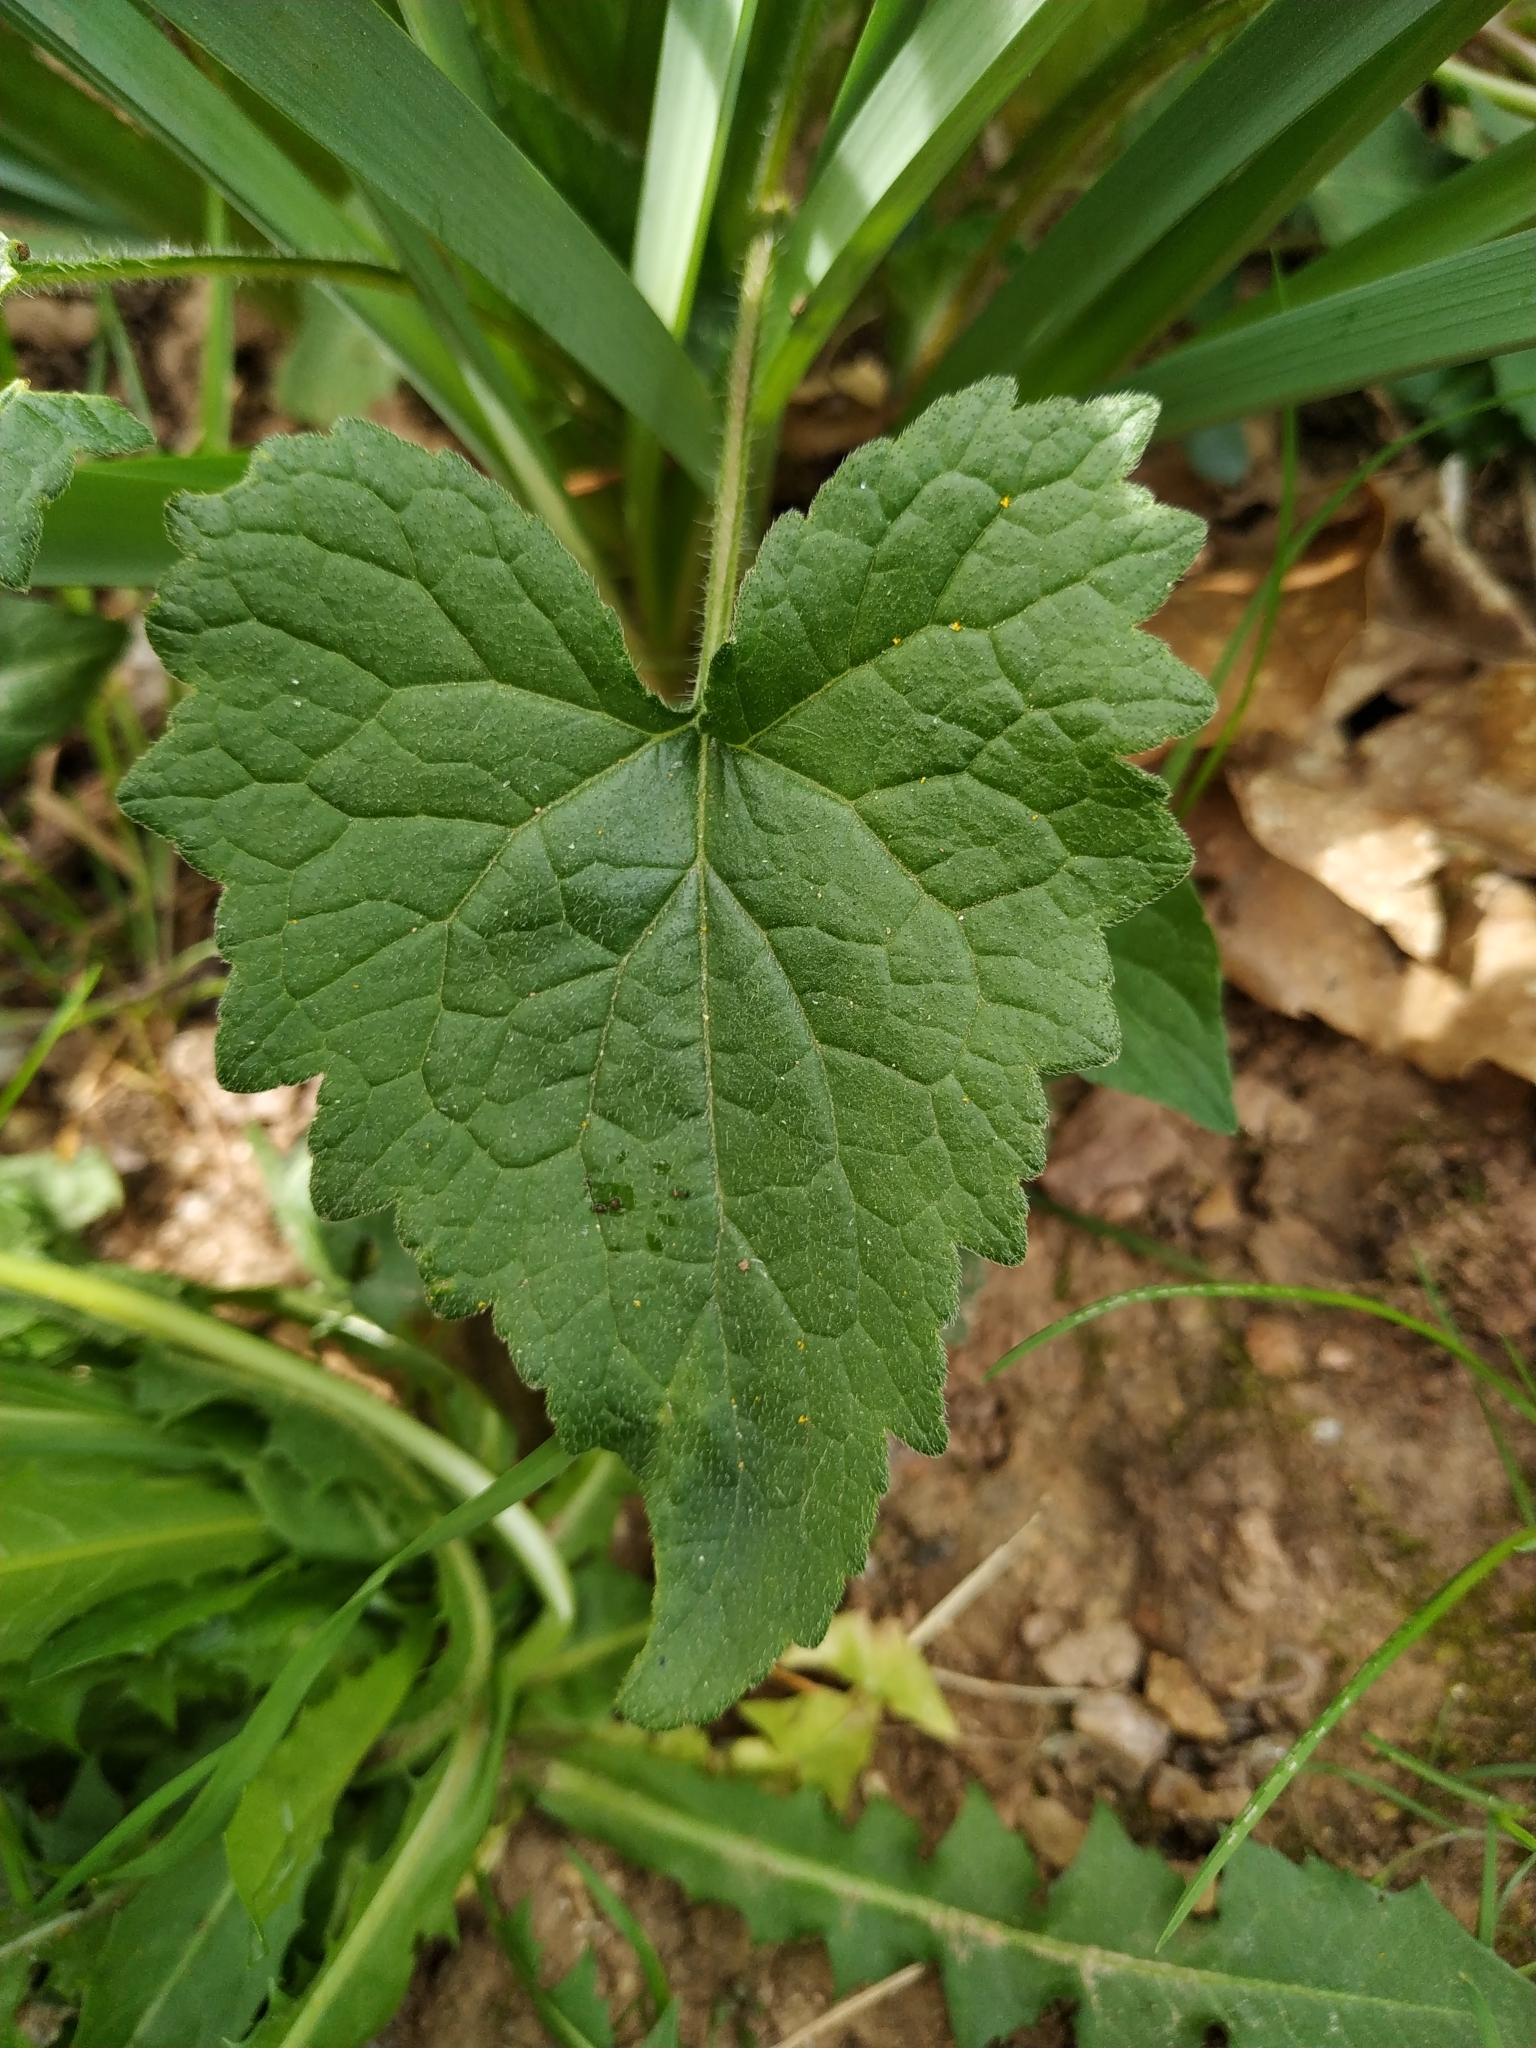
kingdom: Plantae
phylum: Tracheophyta
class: Magnoliopsida
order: Asterales
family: Campanulaceae
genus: Campanula
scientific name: Campanula trachelium
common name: Nettle-leaved bellflower
